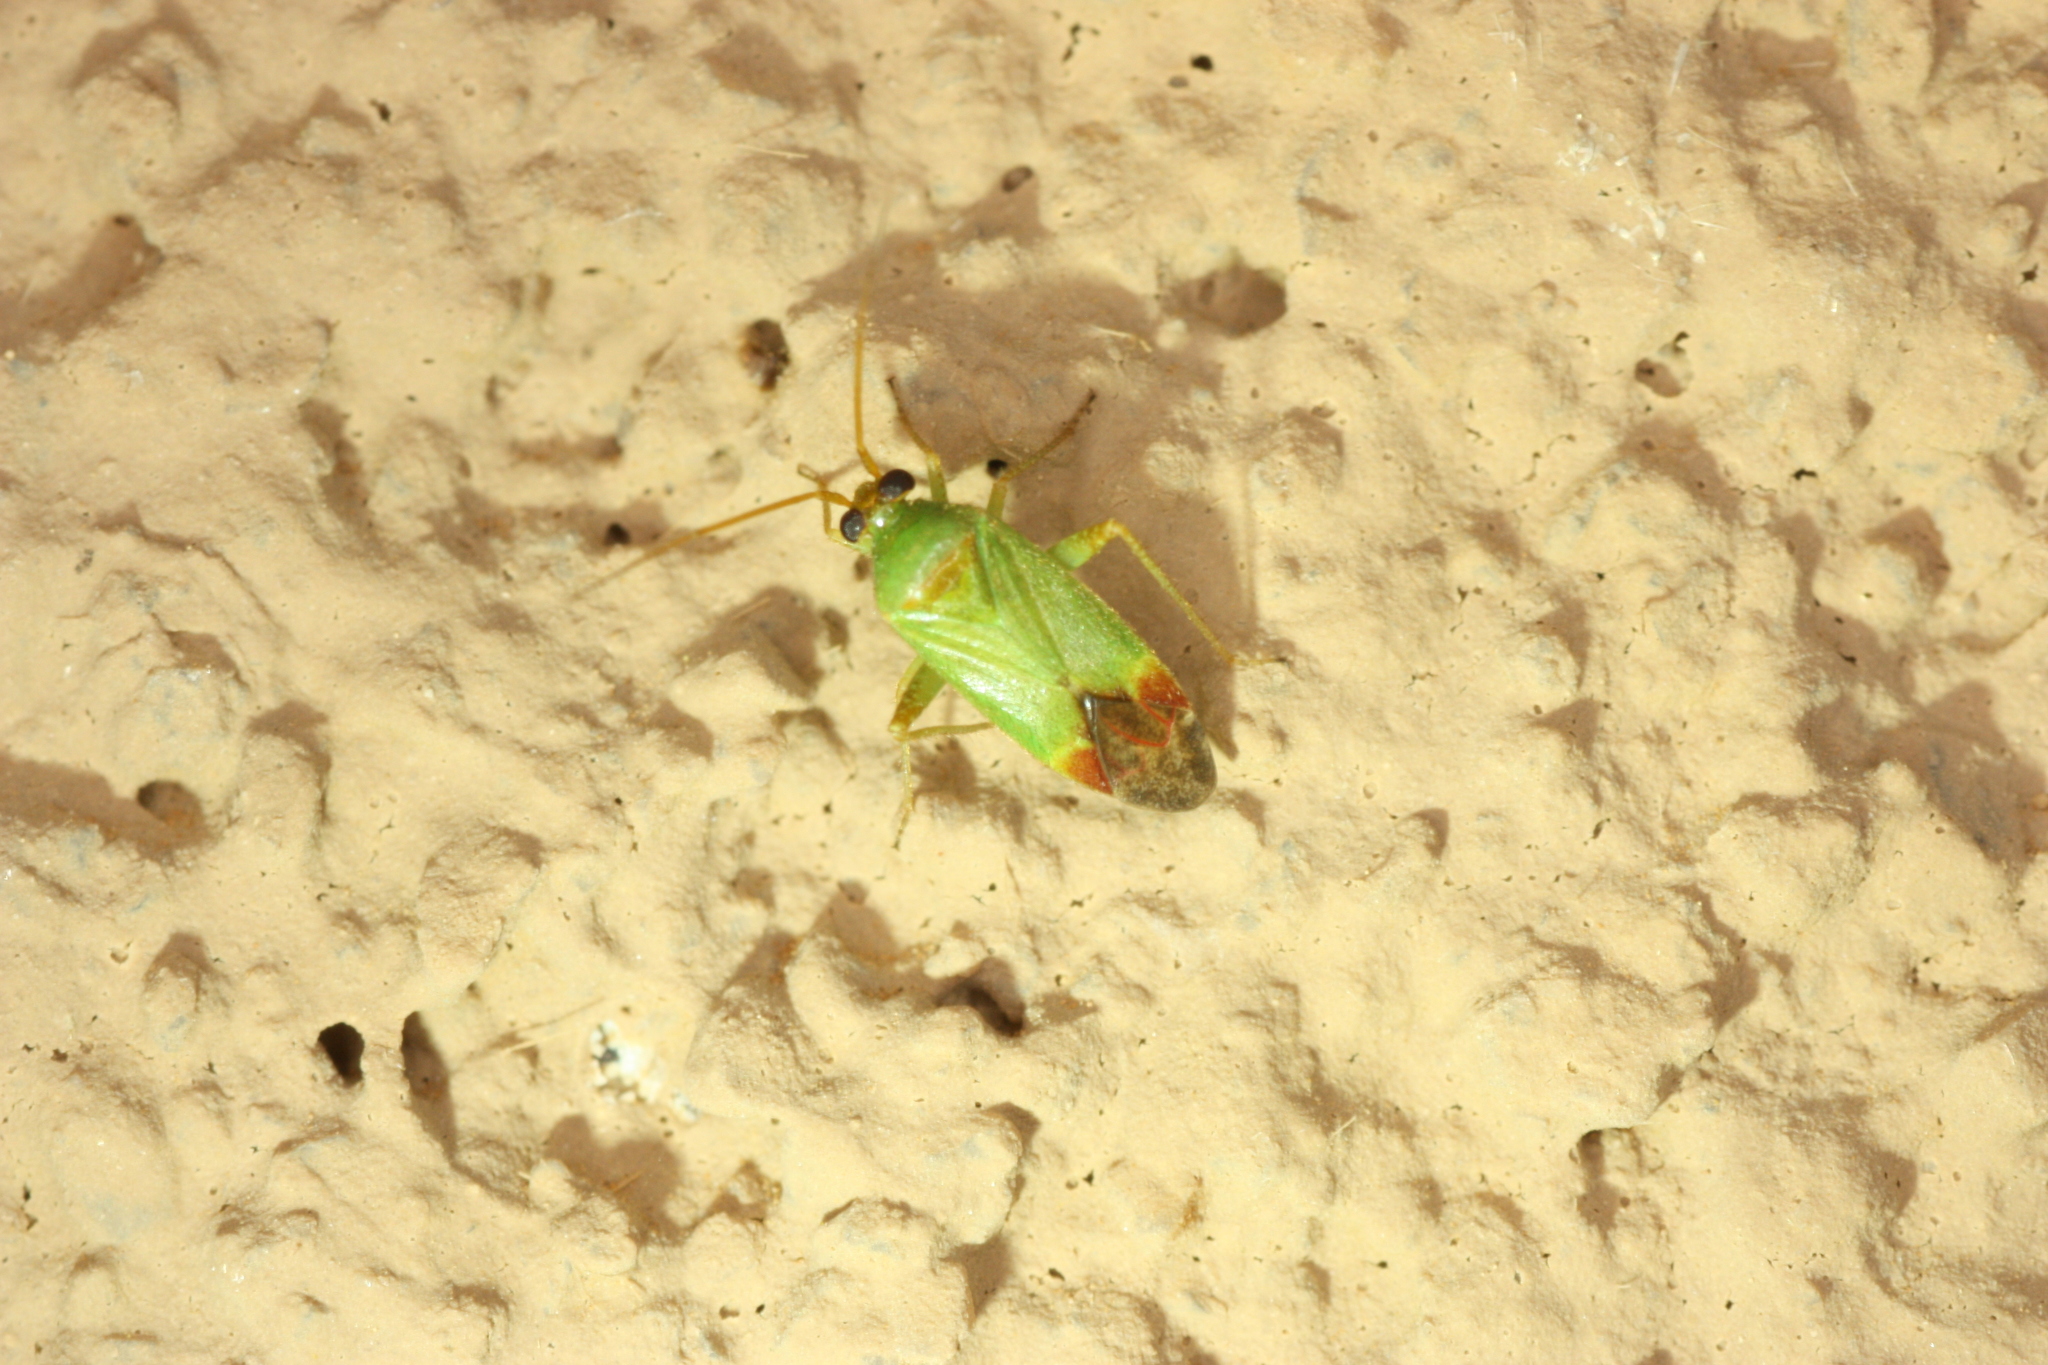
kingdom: Animalia
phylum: Arthropoda
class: Insecta
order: Hemiptera
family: Miridae
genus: Phytocoris
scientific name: Phytocoris vanduzeei
